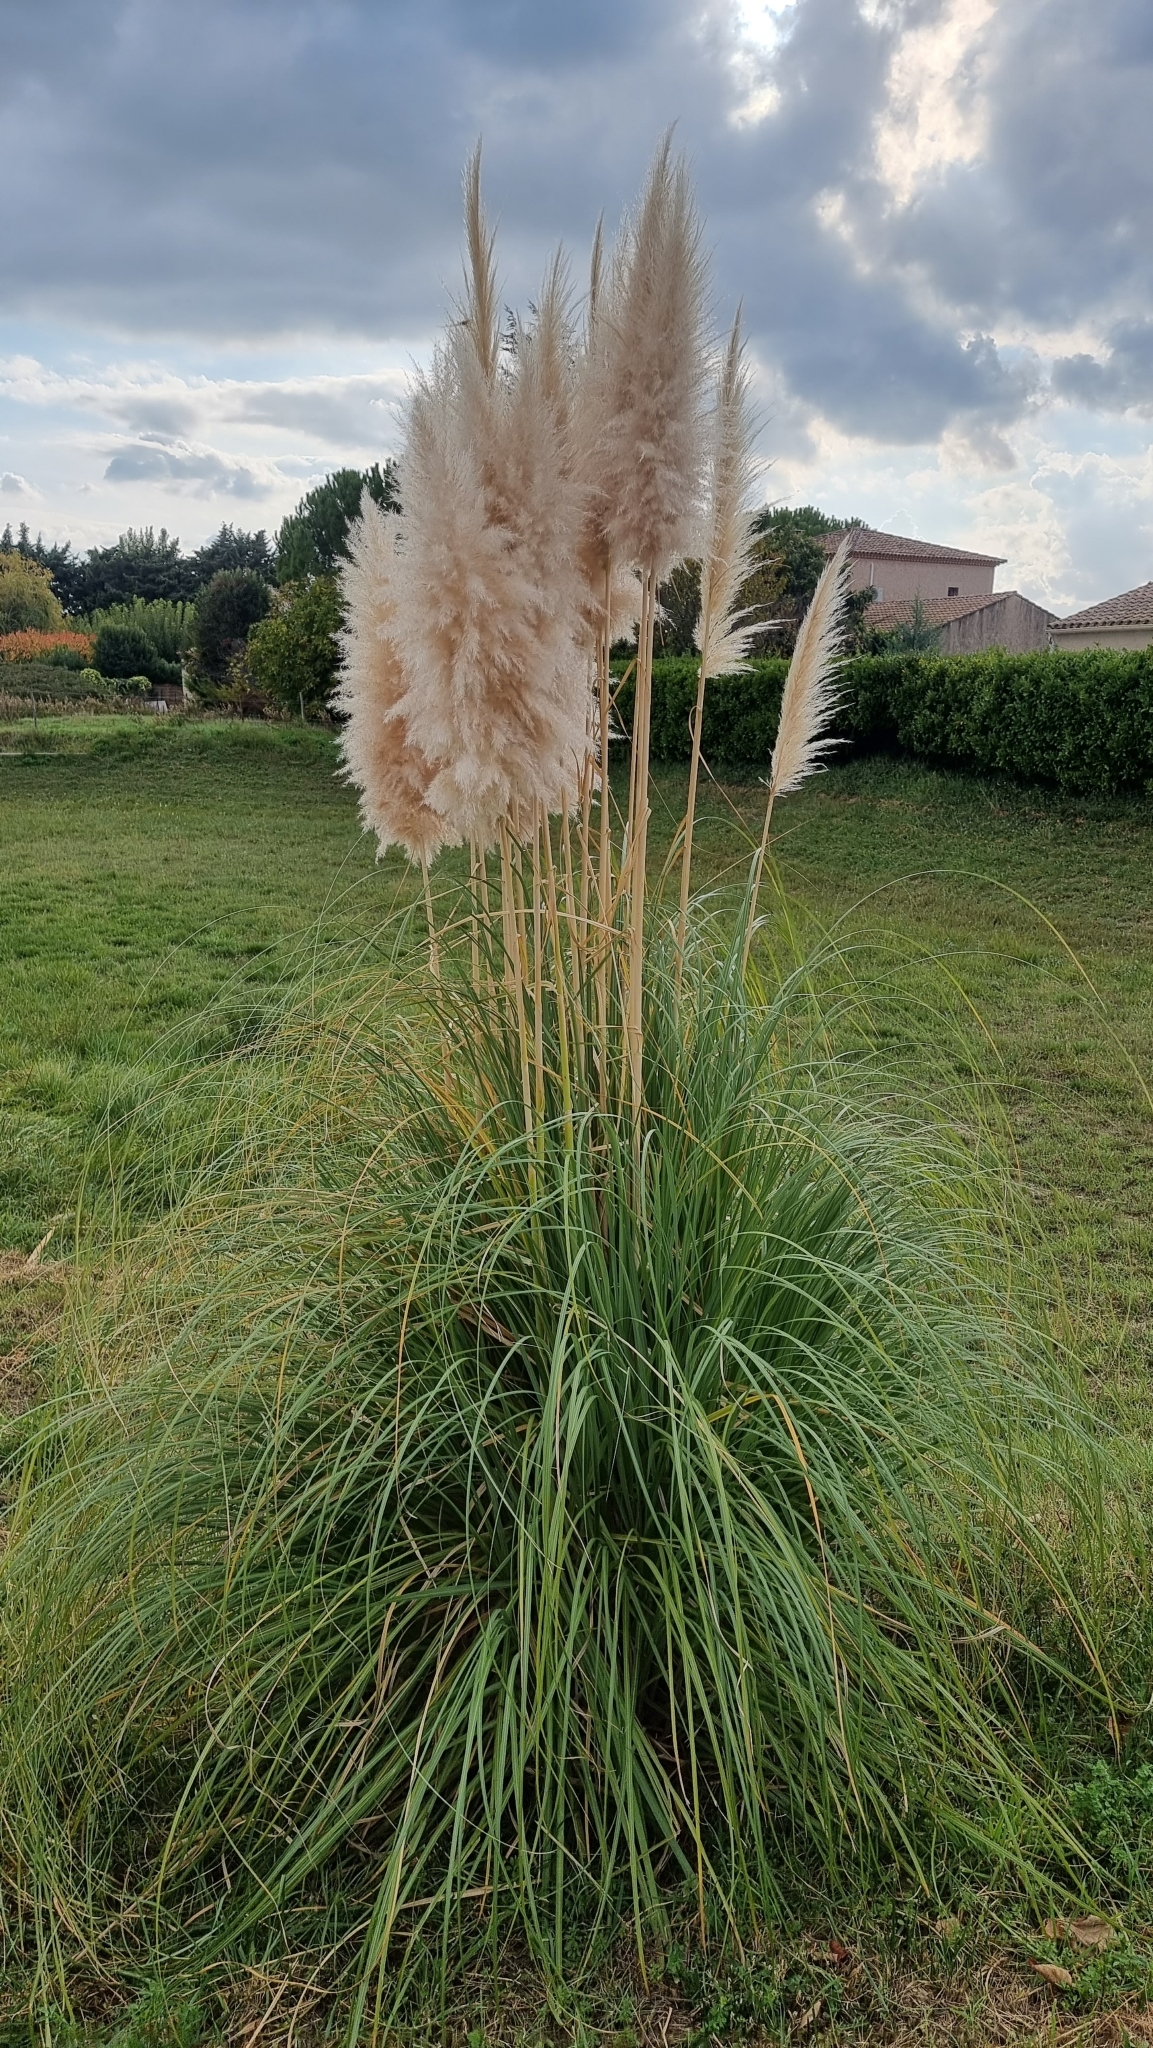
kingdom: Plantae
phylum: Tracheophyta
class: Liliopsida
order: Poales
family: Poaceae
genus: Cortaderia
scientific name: Cortaderia selloana
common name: Uruguayan pampas grass
